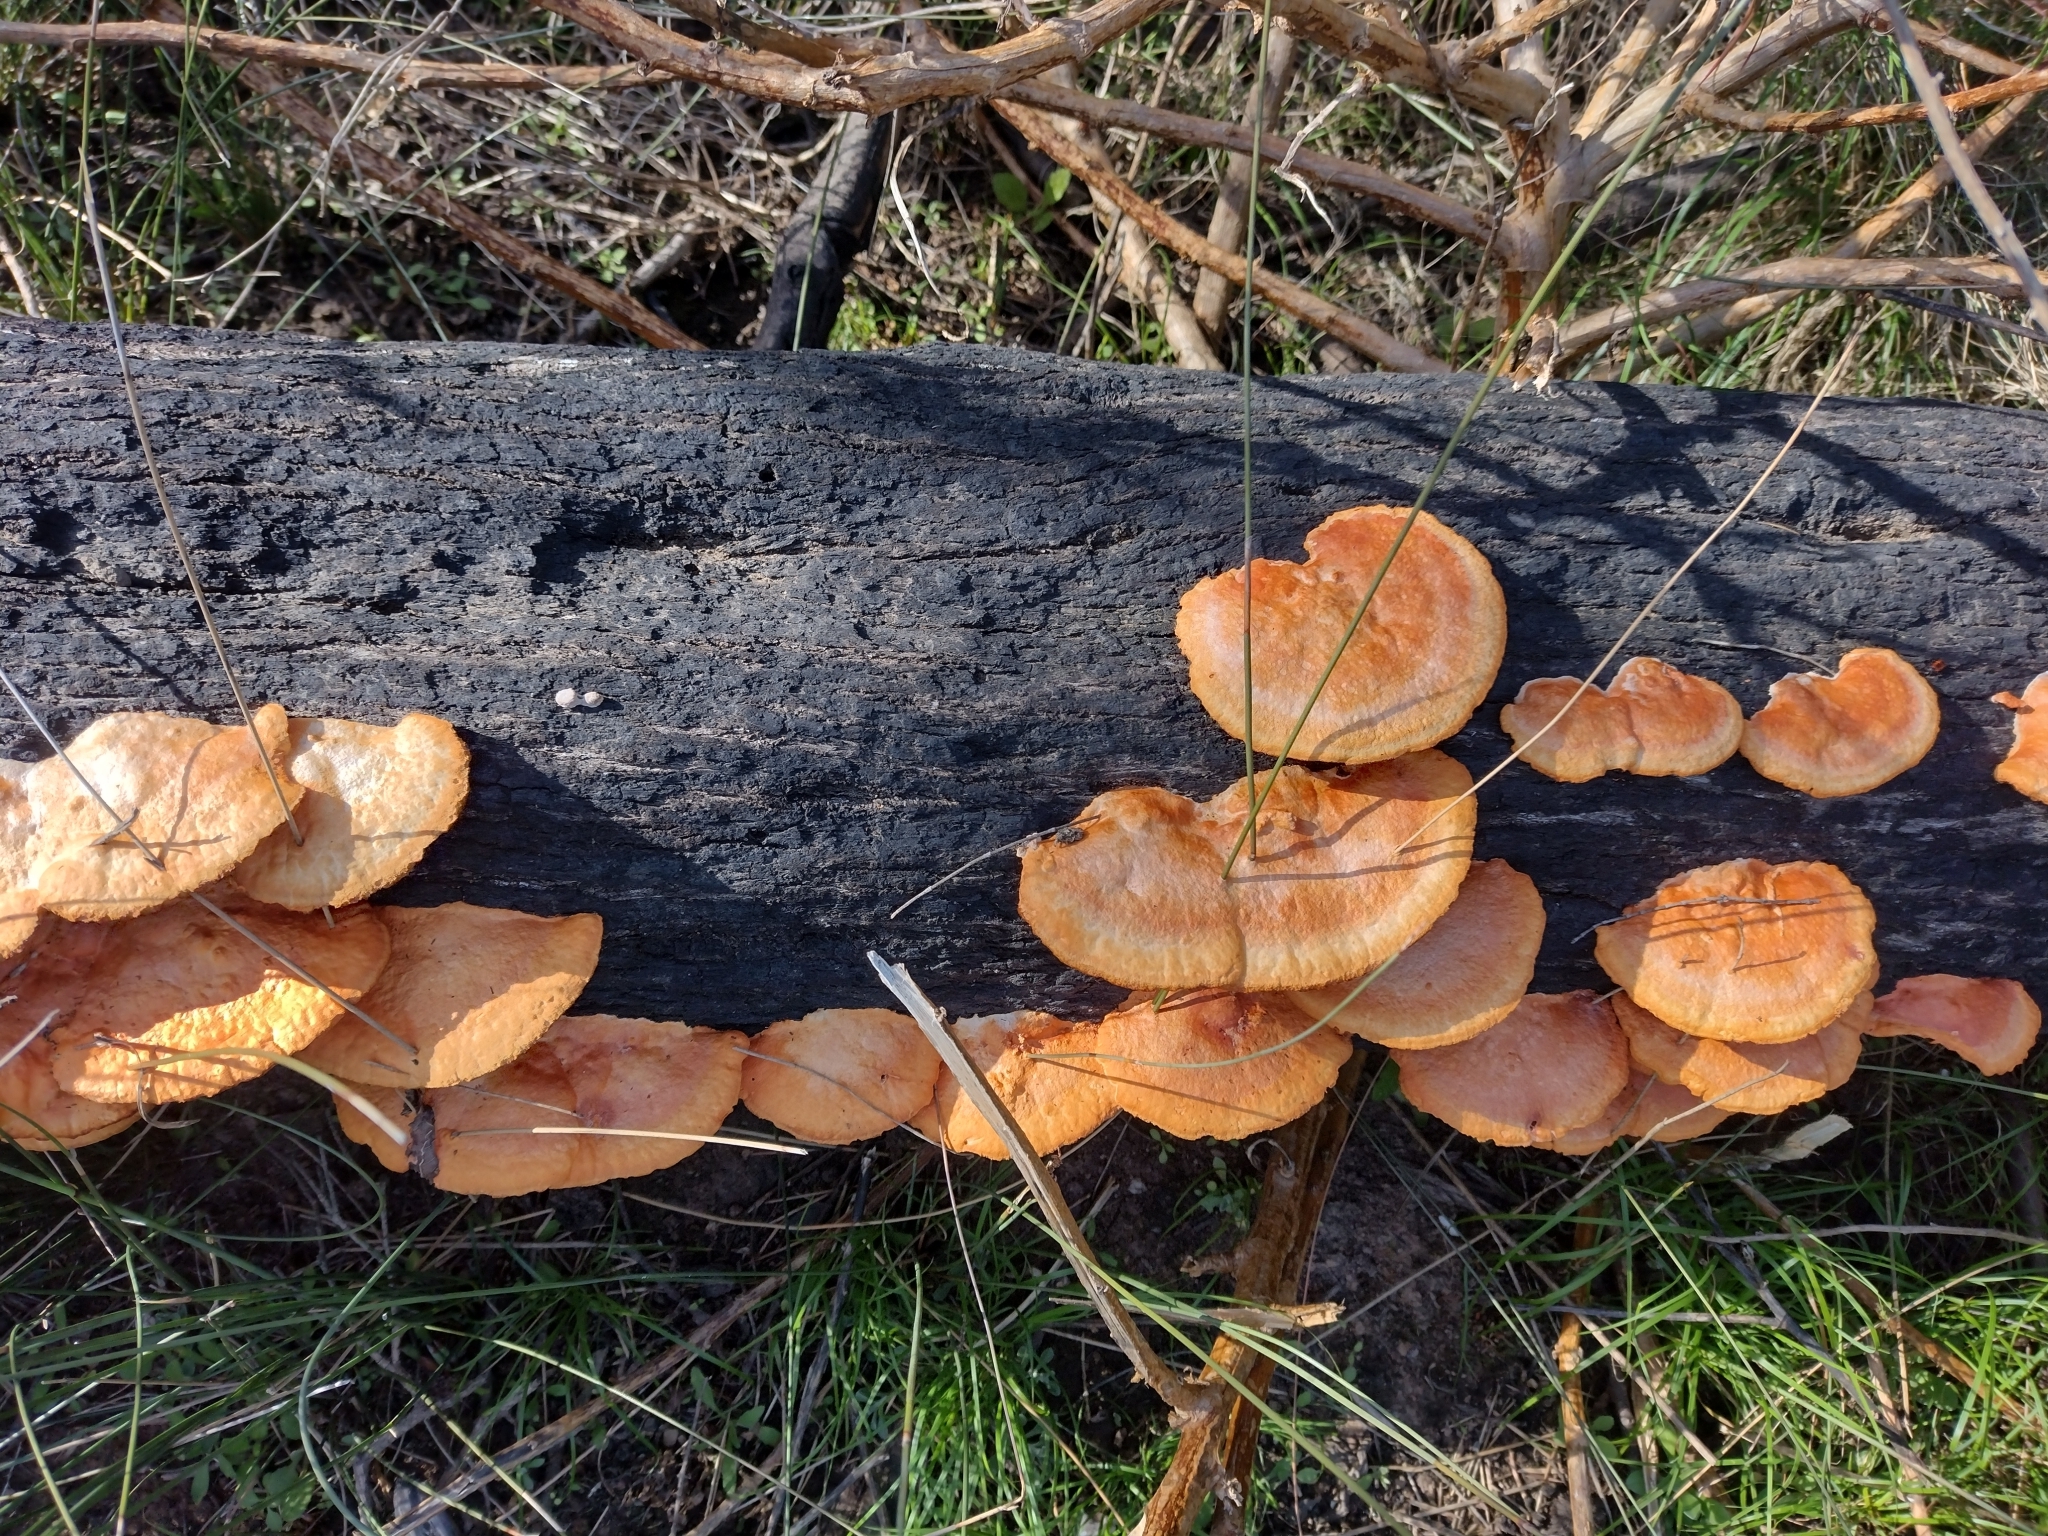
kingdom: Fungi
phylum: Basidiomycota
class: Agaricomycetes
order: Polyporales
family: Polyporaceae
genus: Trametes
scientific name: Trametes coccinea
